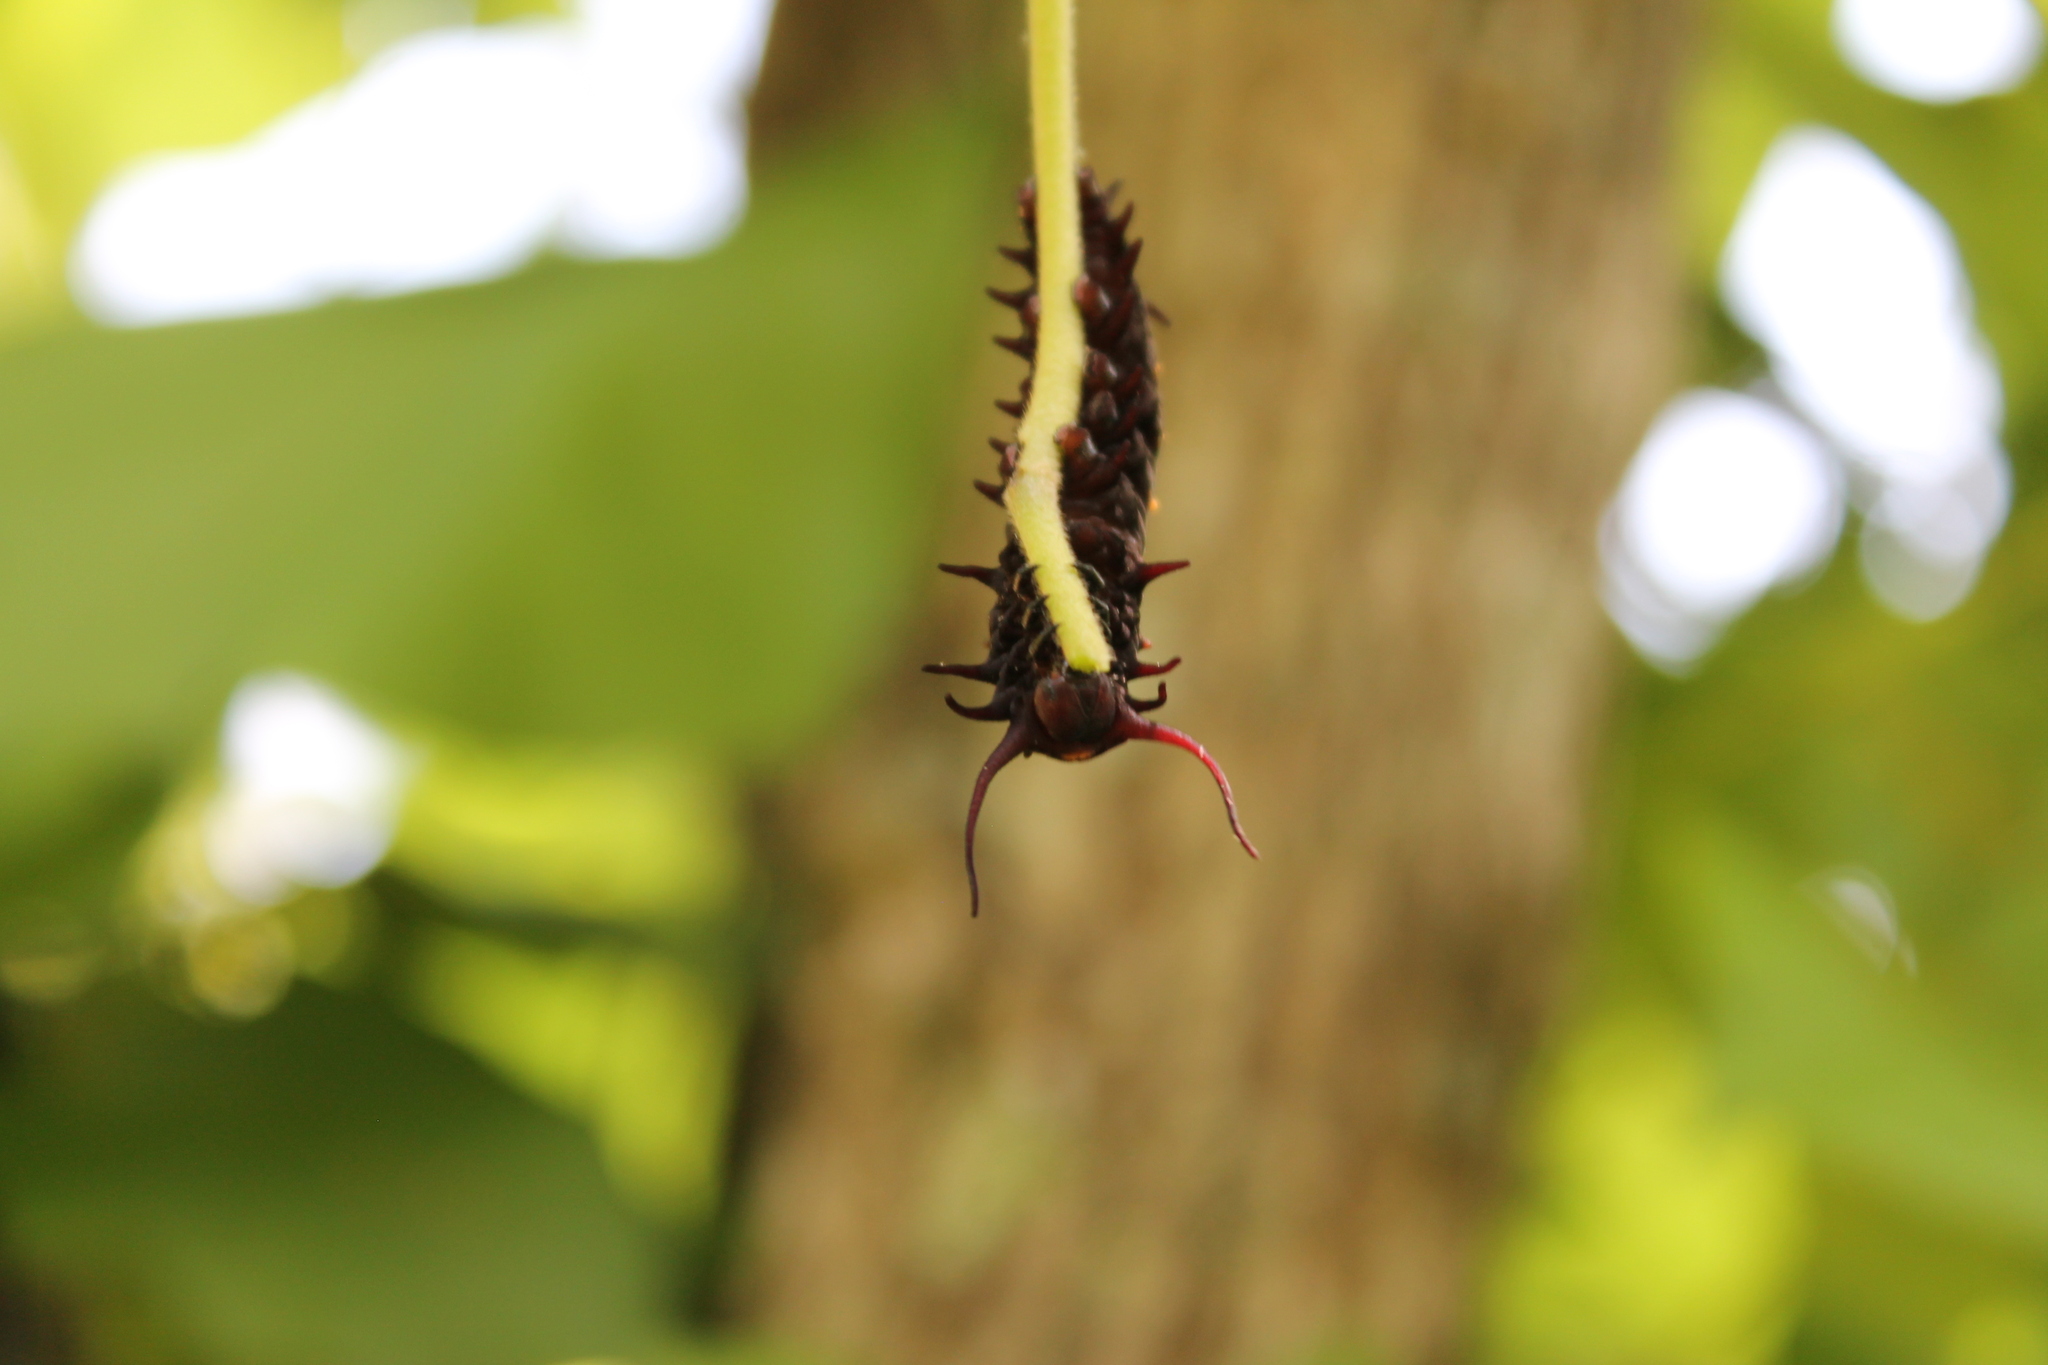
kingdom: Animalia
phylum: Arthropoda
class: Insecta
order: Lepidoptera
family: Papilionidae
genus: Battus
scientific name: Battus philenor
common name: Pipevine swallowtail
